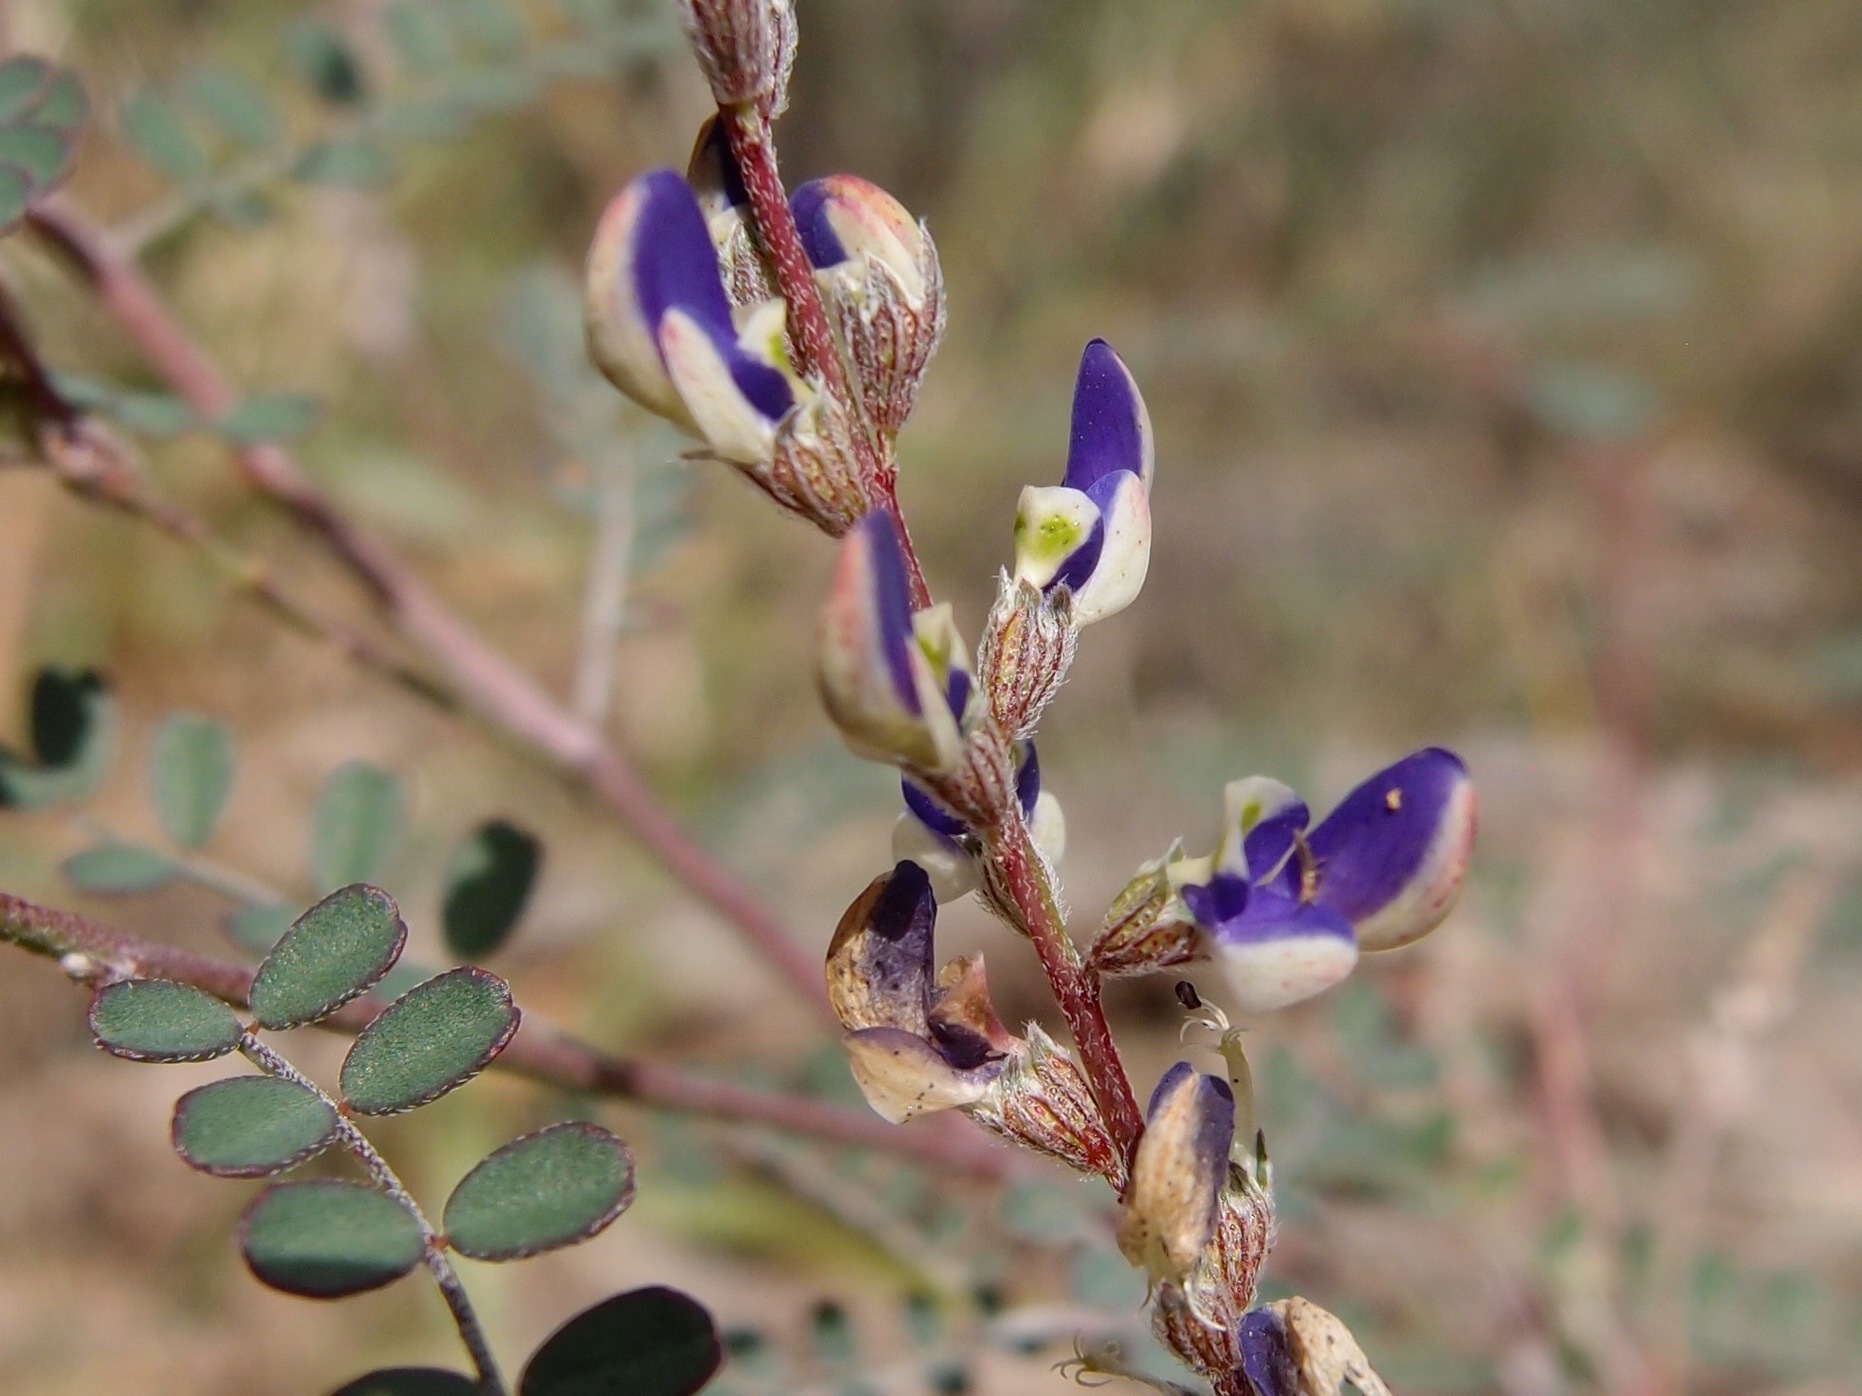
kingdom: Plantae
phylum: Tracheophyta
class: Magnoliopsida
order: Fabales
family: Fabaceae
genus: Marina
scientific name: Marina parryi
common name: Parry's marina
